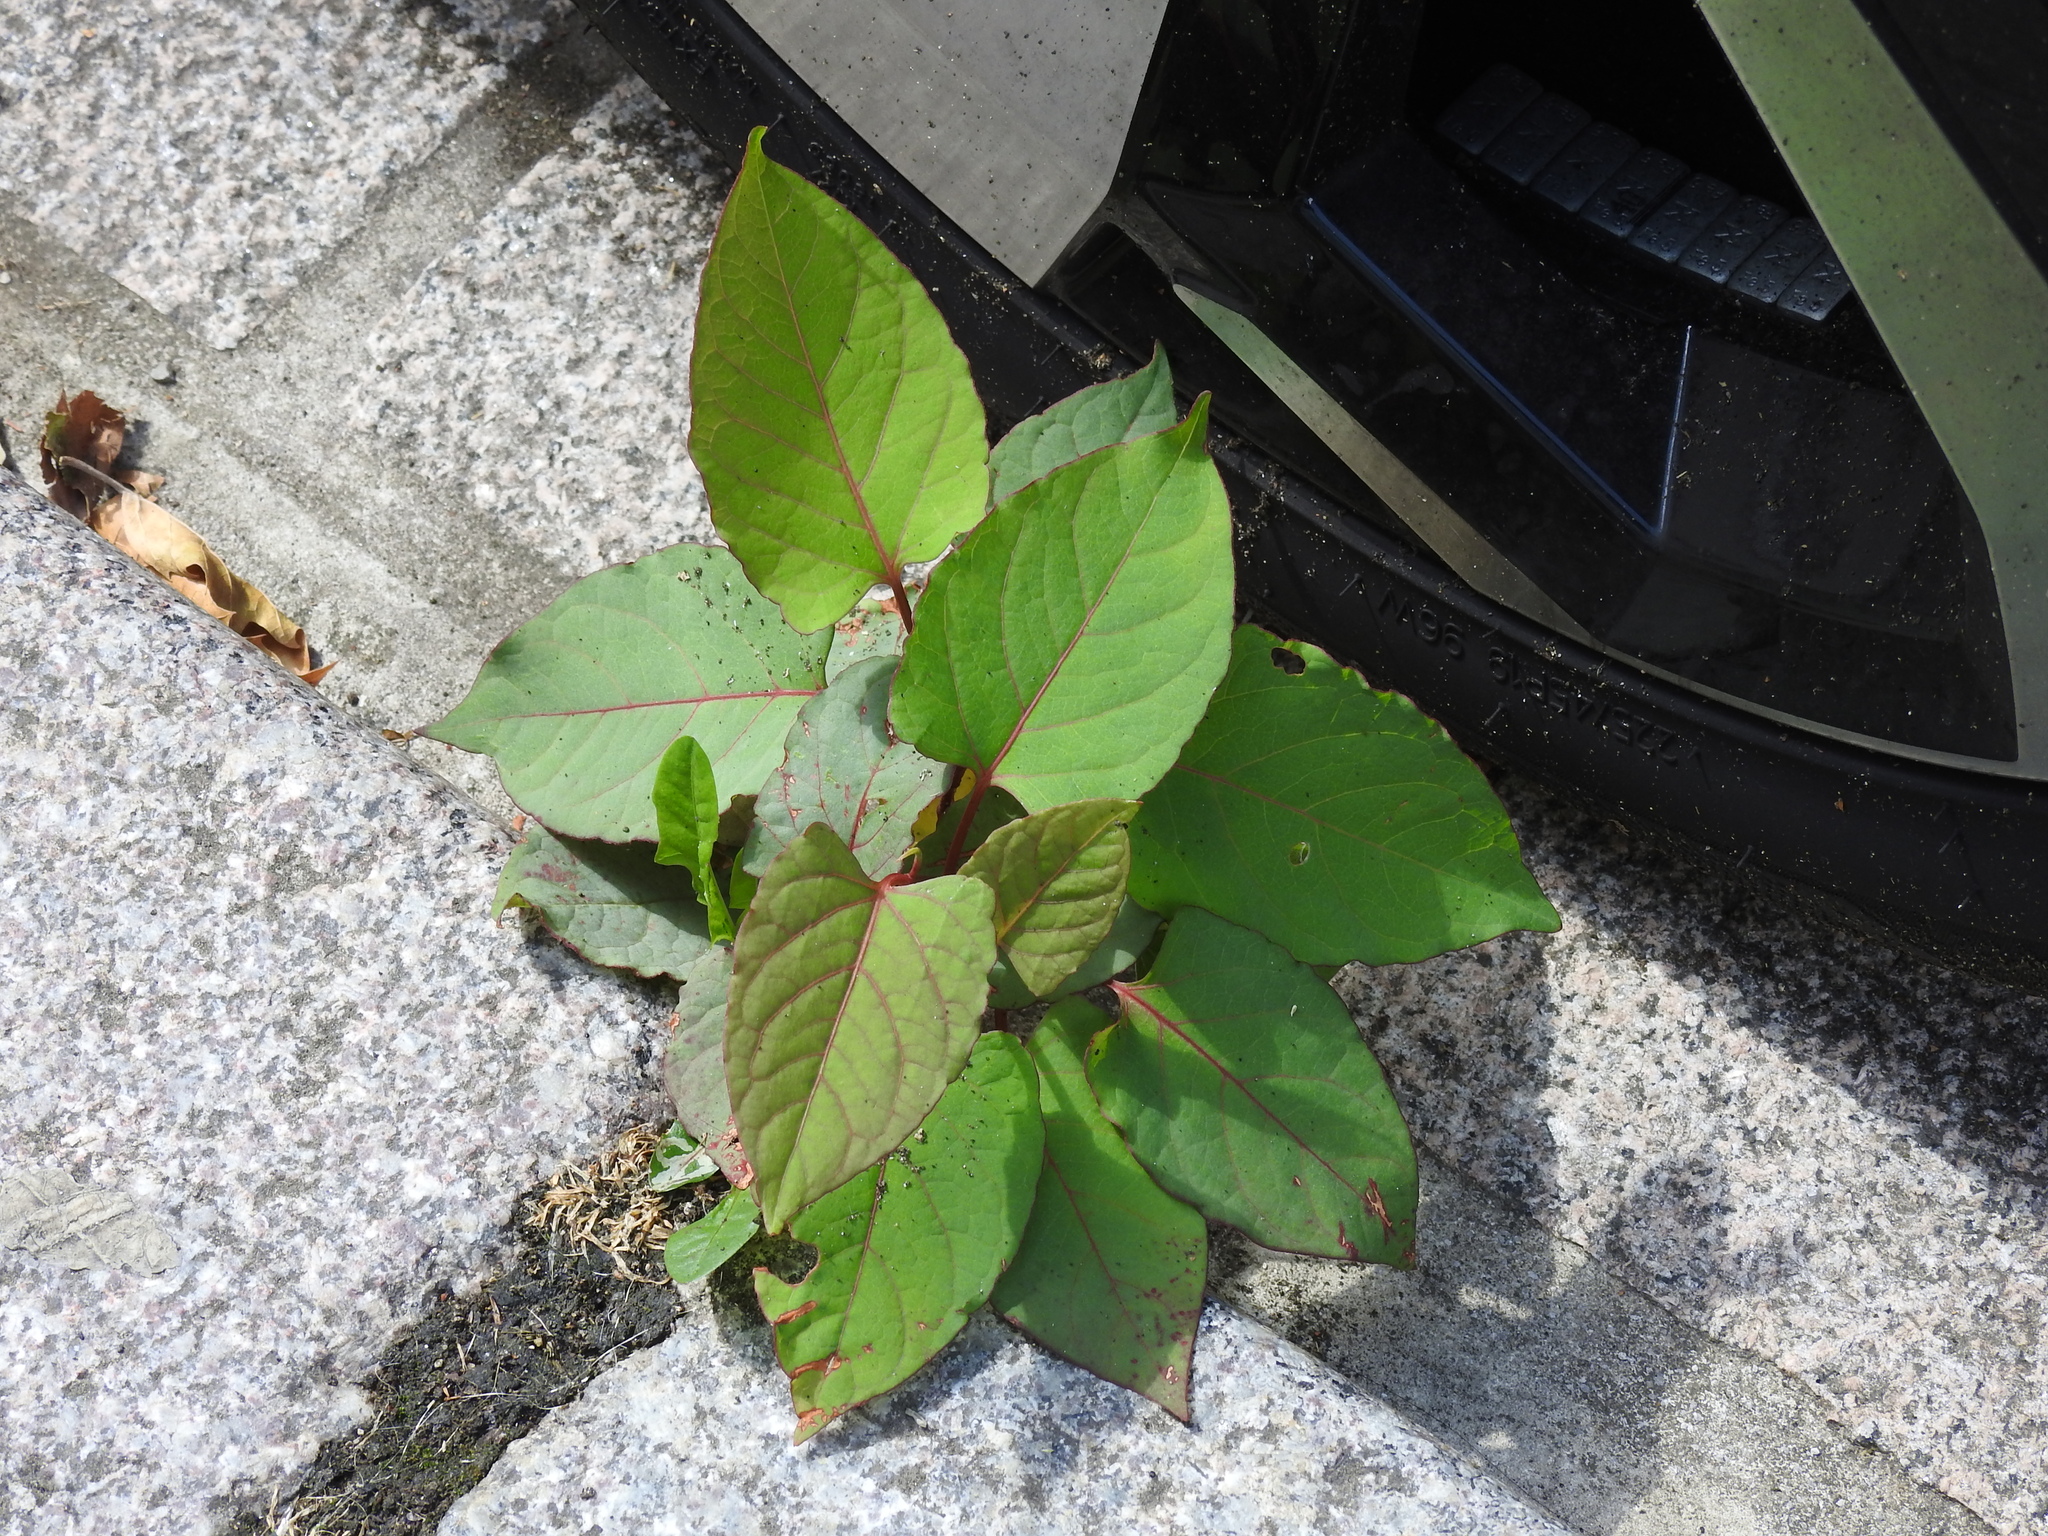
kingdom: Plantae
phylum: Tracheophyta
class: Magnoliopsida
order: Caryophyllales
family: Polygonaceae
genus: Reynoutria
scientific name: Reynoutria japonica
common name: Japanese knotweed
